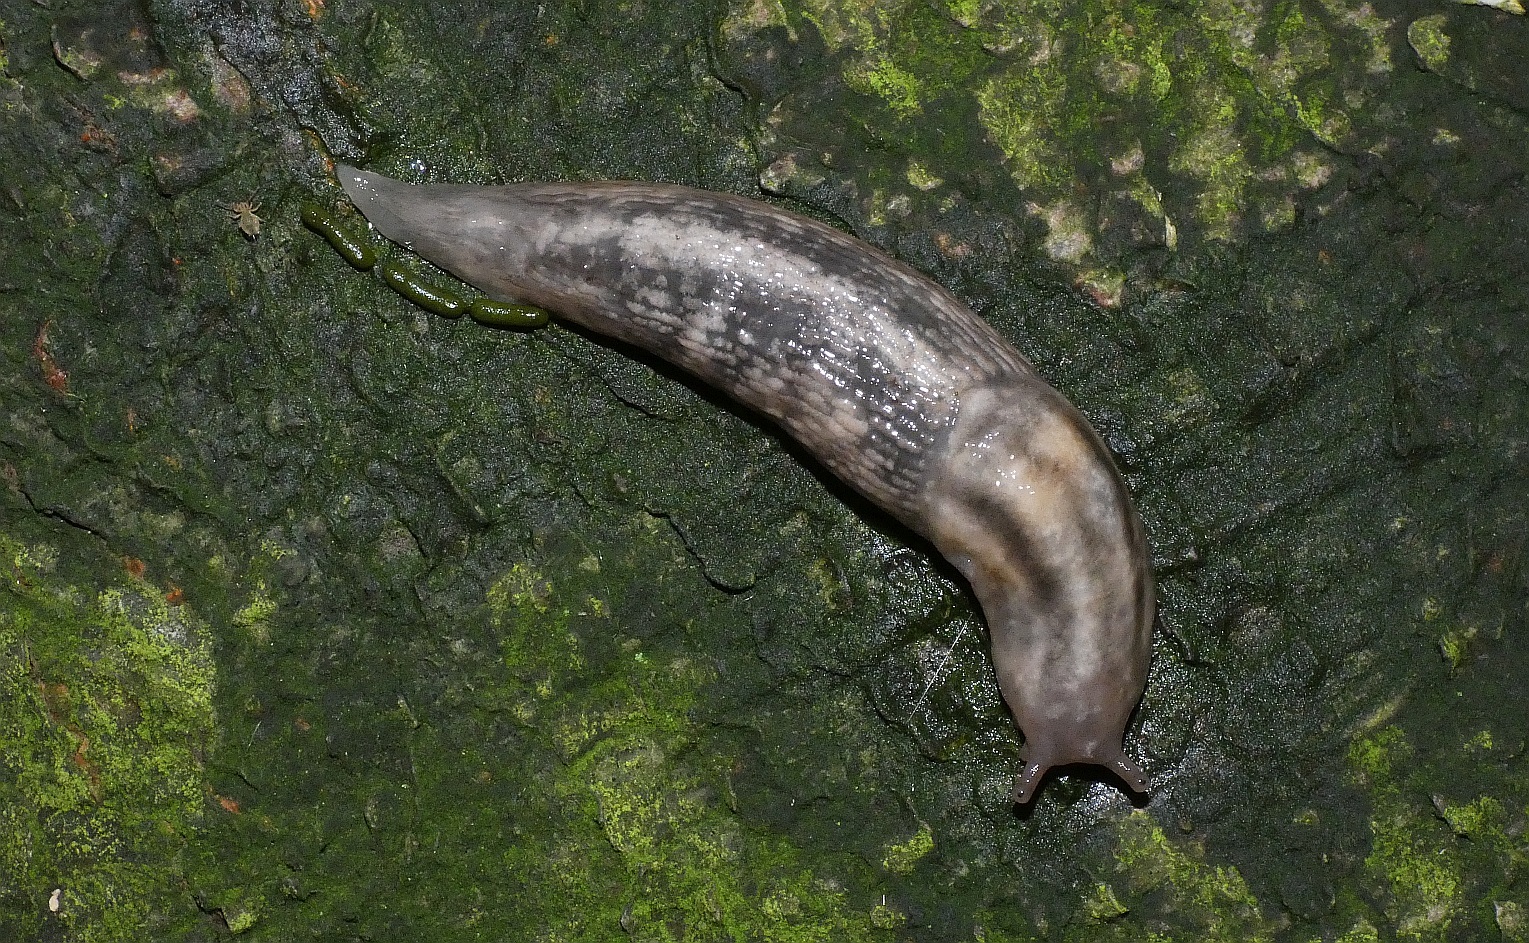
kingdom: Animalia
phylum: Mollusca
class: Gastropoda
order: Stylommatophora
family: Limacidae
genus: Lehmannia
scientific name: Lehmannia marginata
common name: Tree slug
